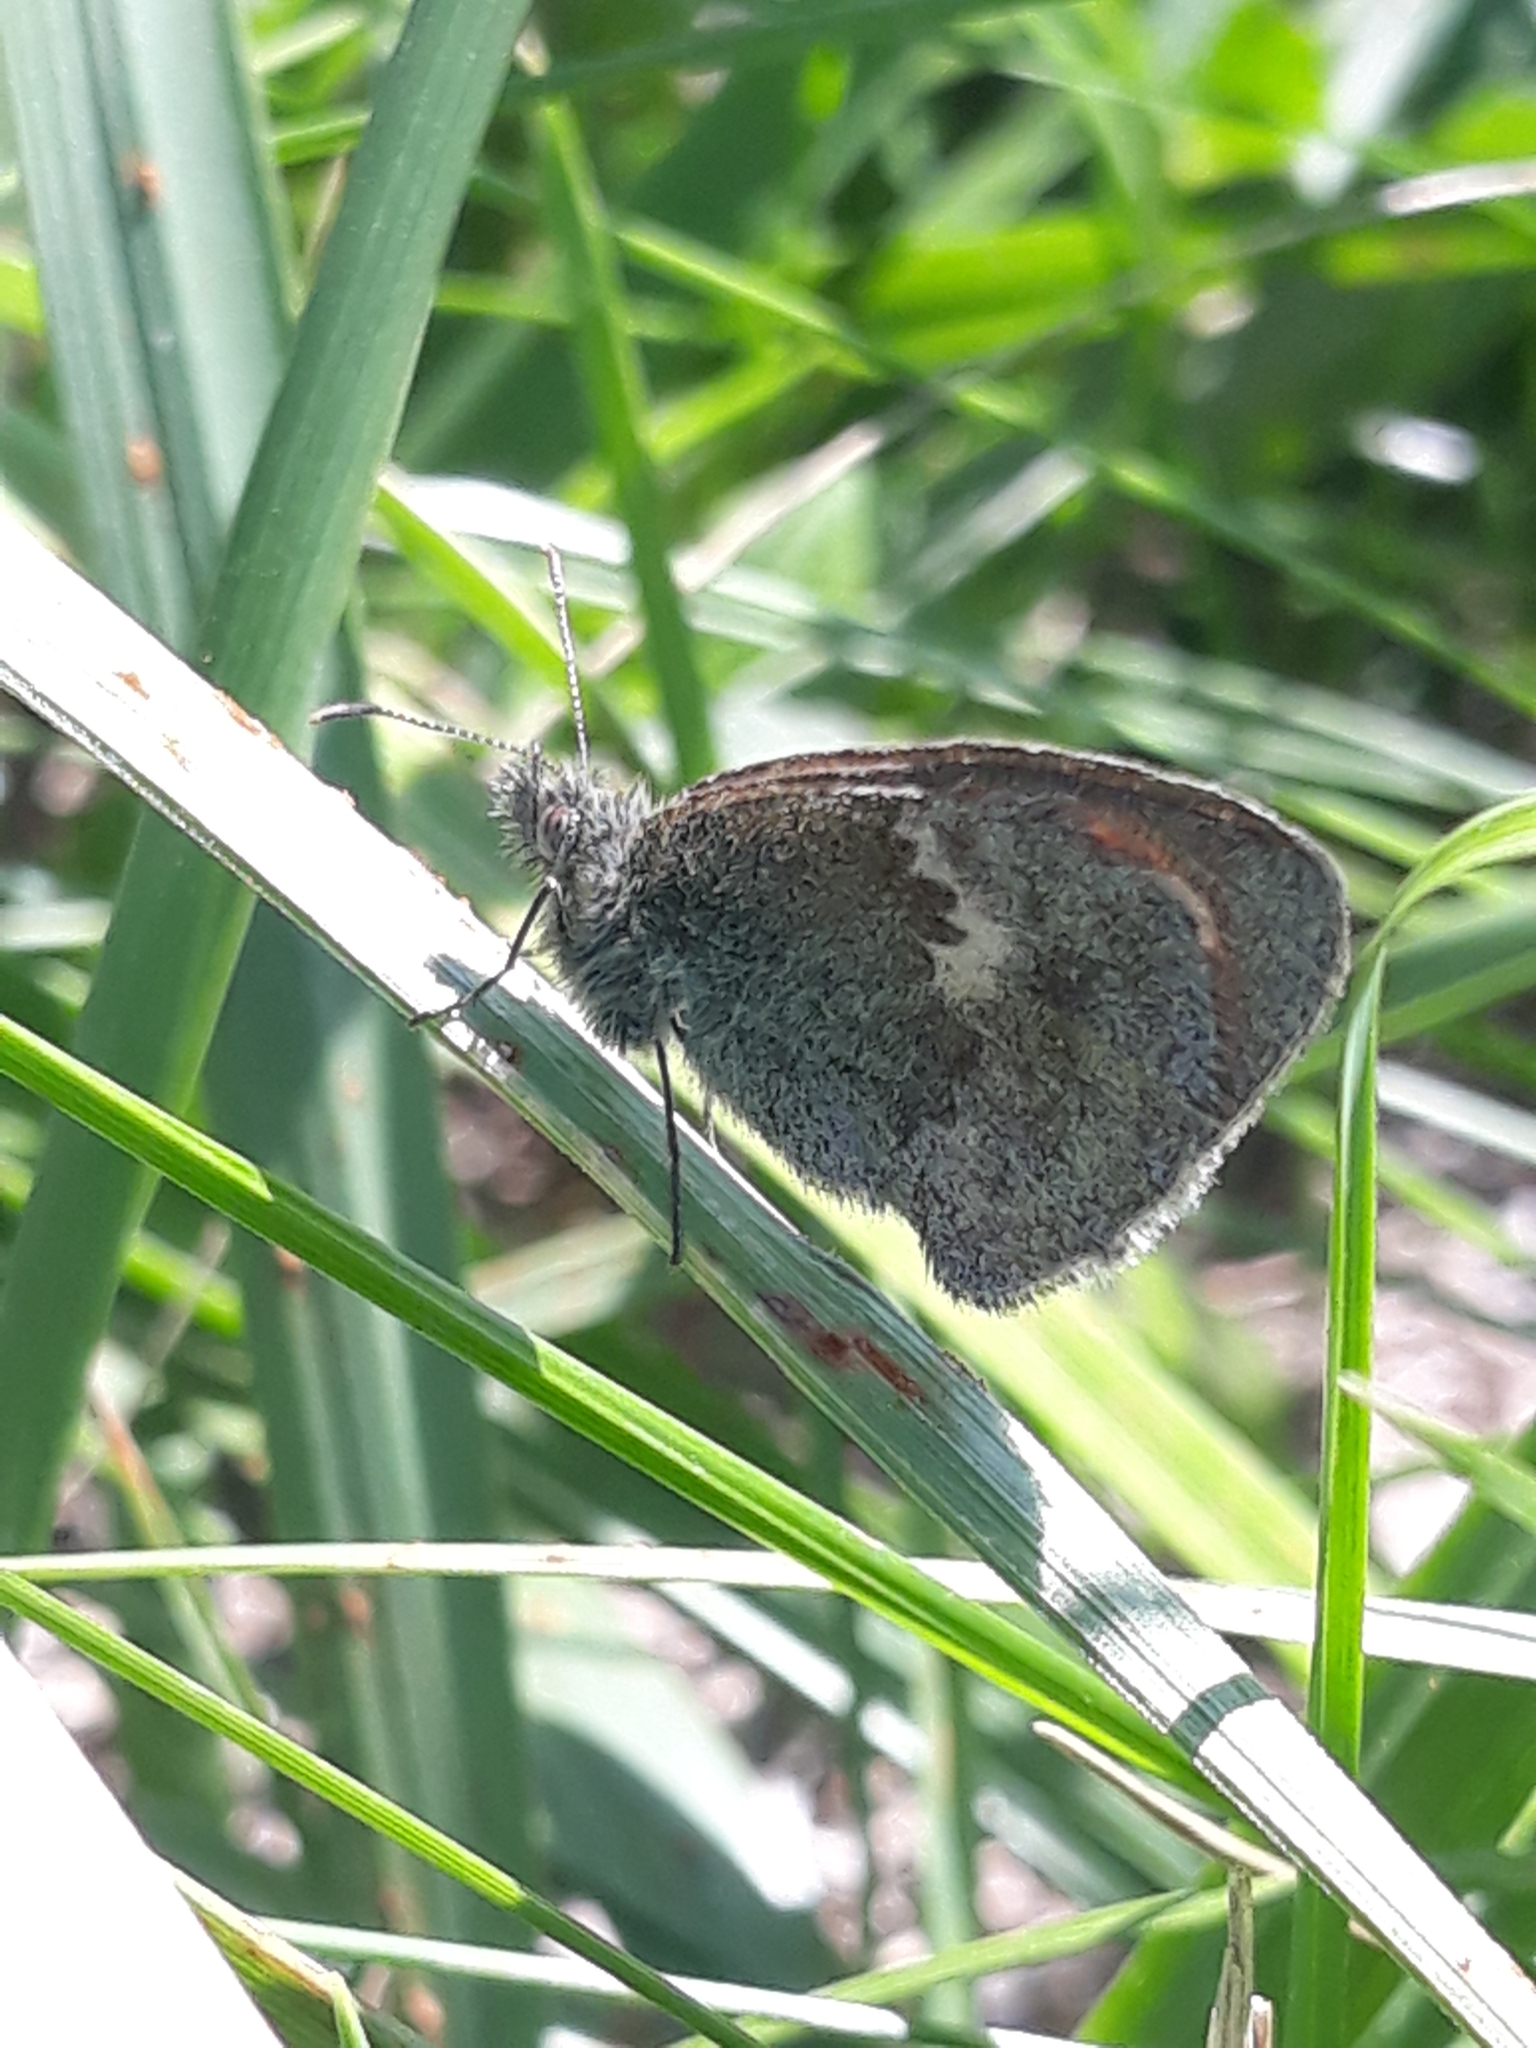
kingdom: Animalia
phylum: Arthropoda
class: Insecta
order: Lepidoptera
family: Nymphalidae
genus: Coenonympha
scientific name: Coenonympha pamphilus
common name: Small heath
